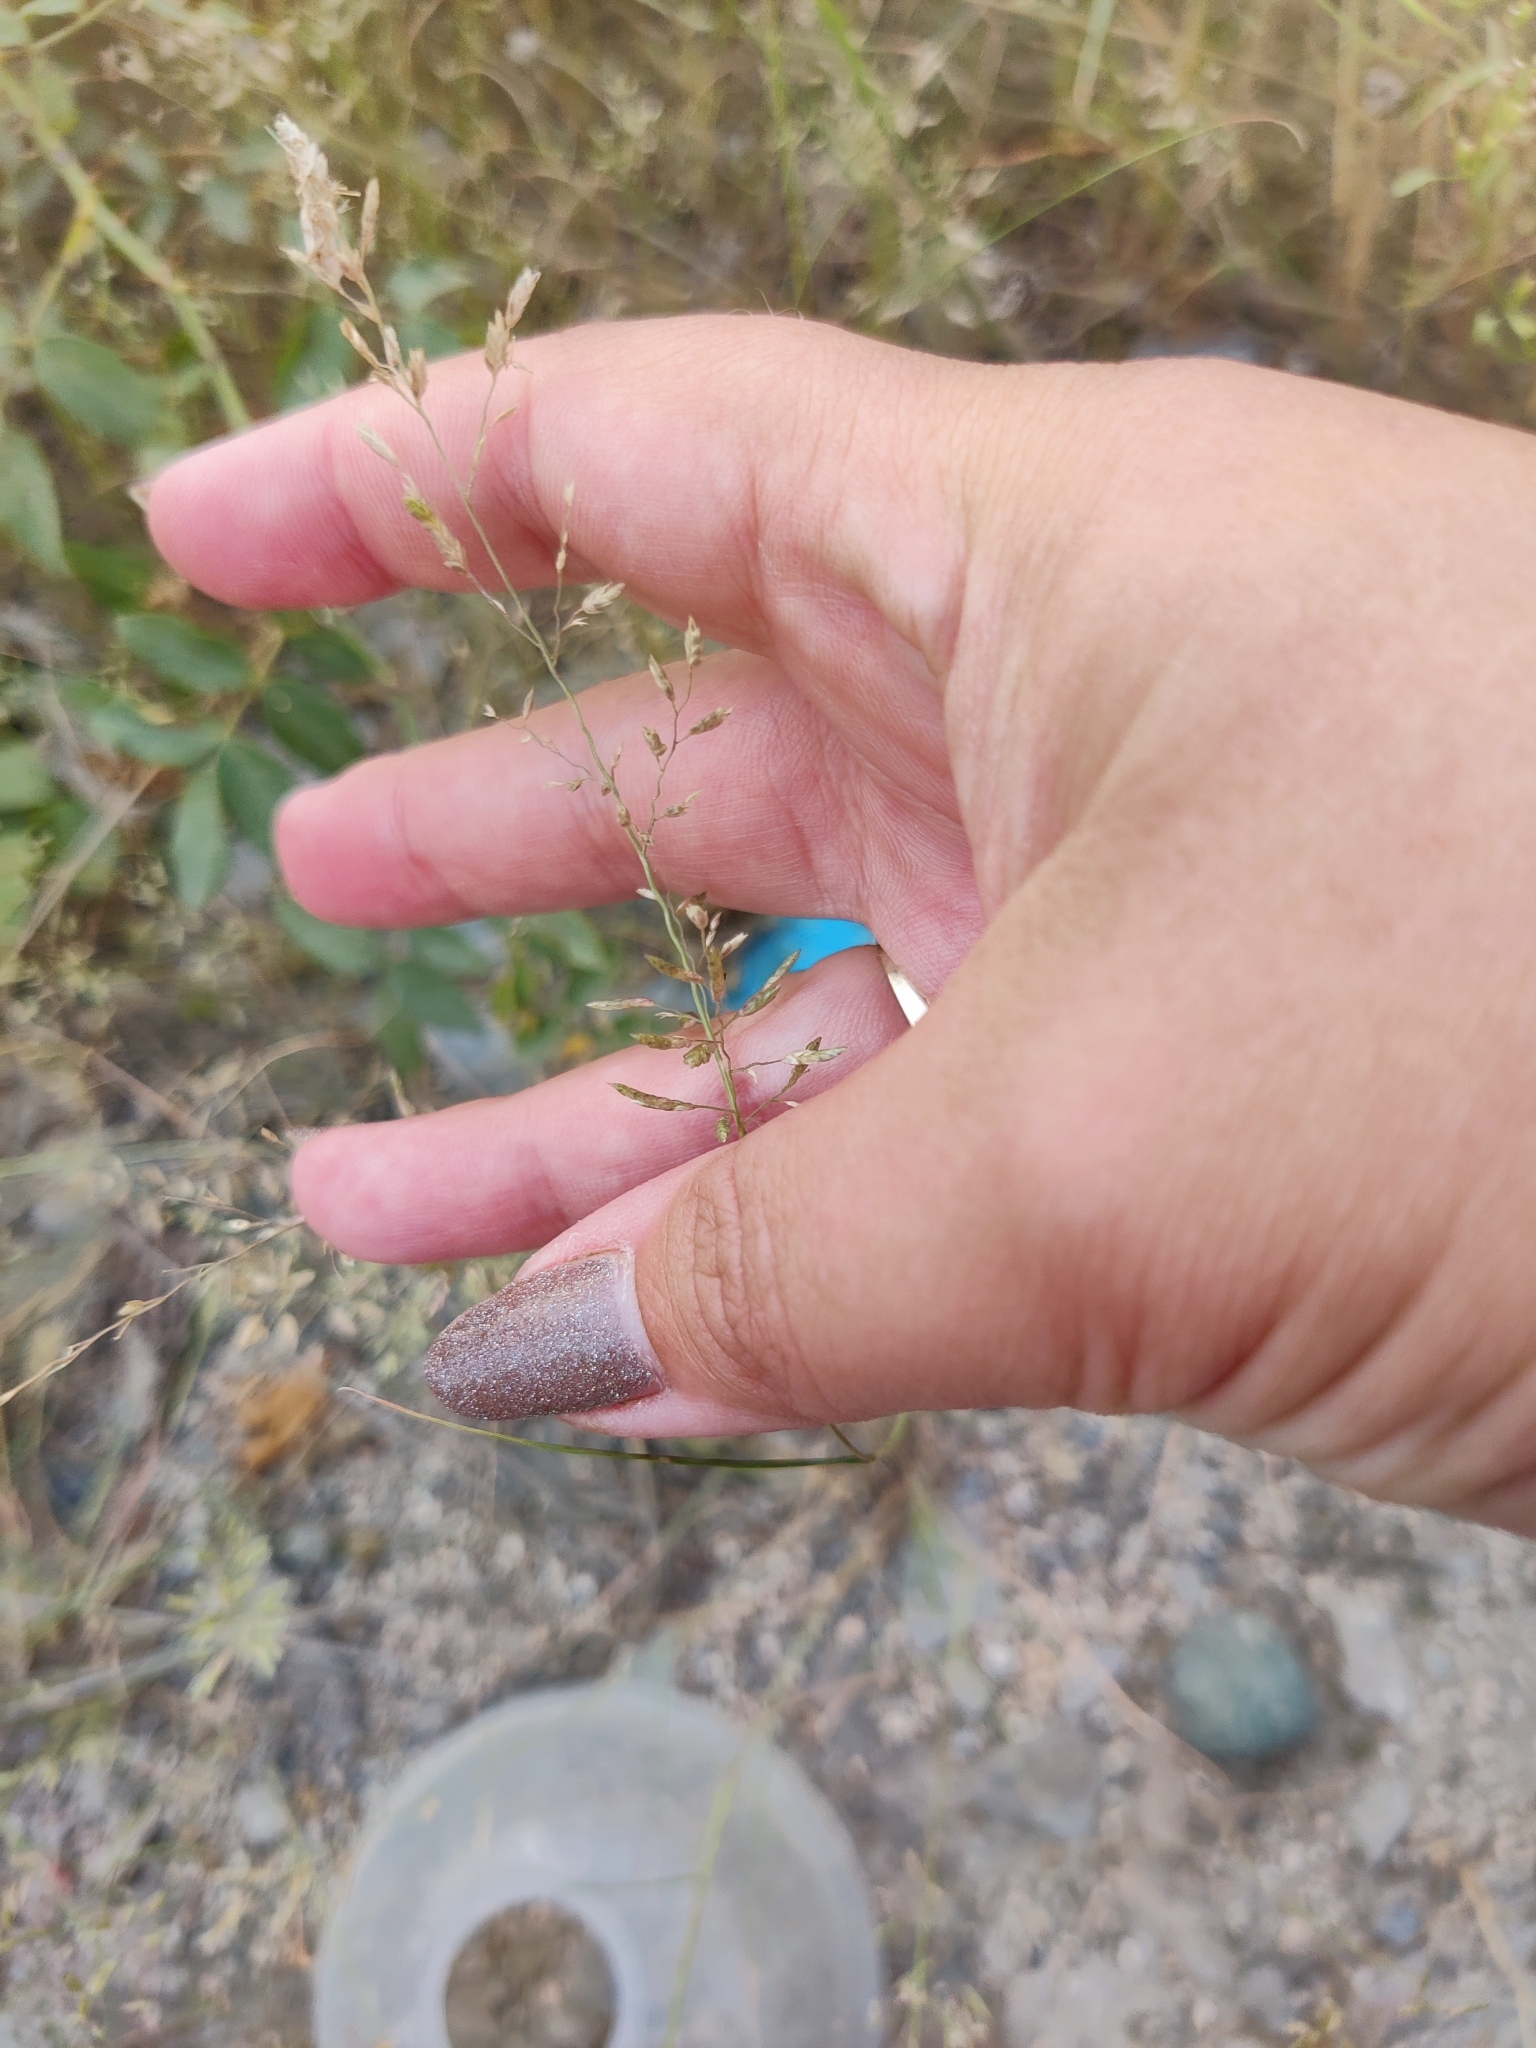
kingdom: Plantae
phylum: Tracheophyta
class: Liliopsida
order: Poales
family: Poaceae
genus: Eragrostis
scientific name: Eragrostis minor
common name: Small love-grass
